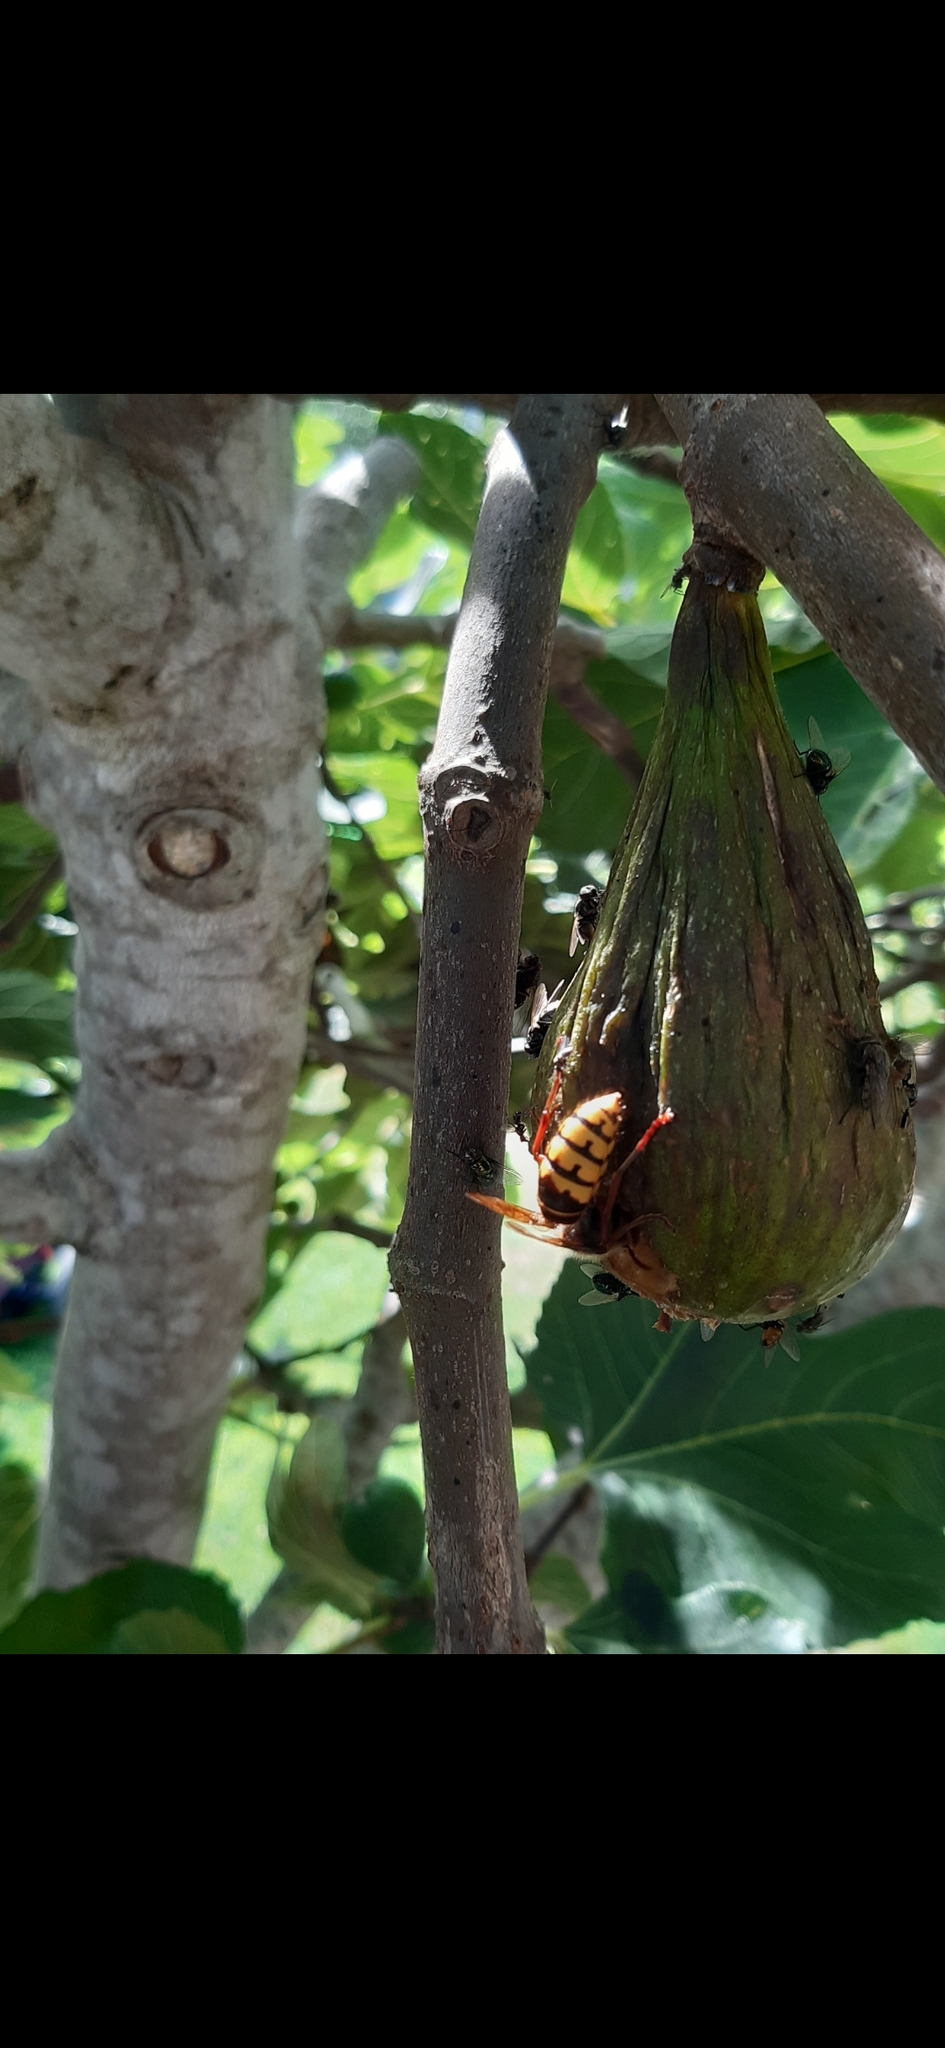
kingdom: Animalia
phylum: Arthropoda
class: Insecta
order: Hymenoptera
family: Vespidae
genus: Vespa
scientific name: Vespa crabro
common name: Hornet
